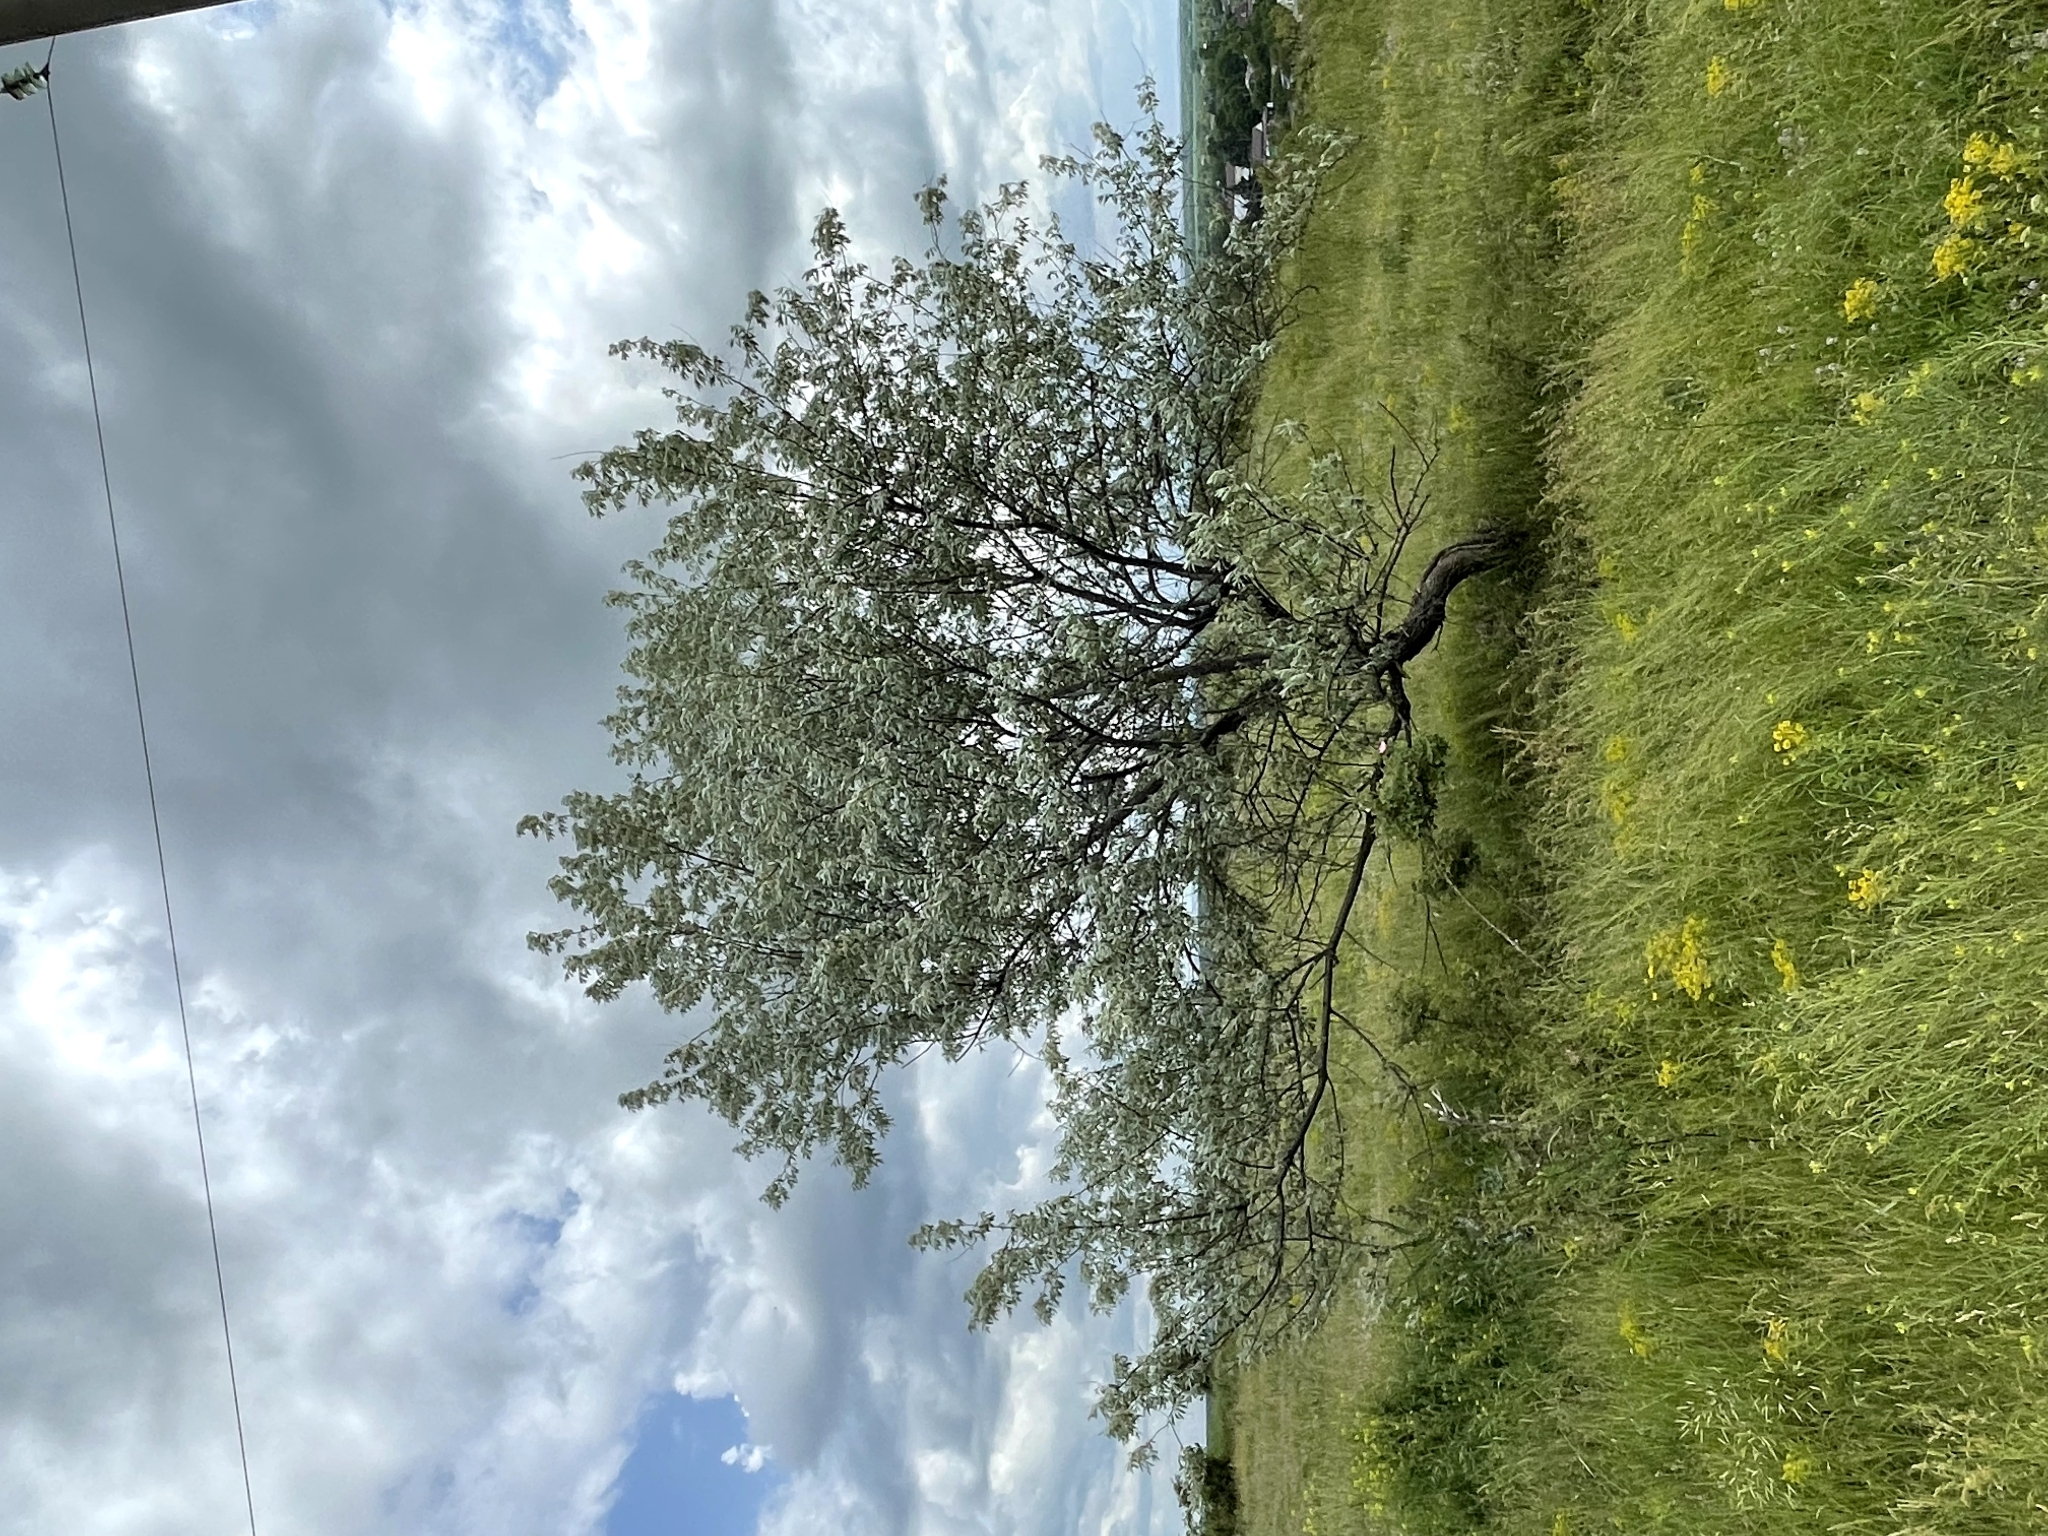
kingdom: Plantae
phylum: Tracheophyta
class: Magnoliopsida
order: Rosales
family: Elaeagnaceae
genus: Elaeagnus
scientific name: Elaeagnus angustifolia
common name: Russian olive
